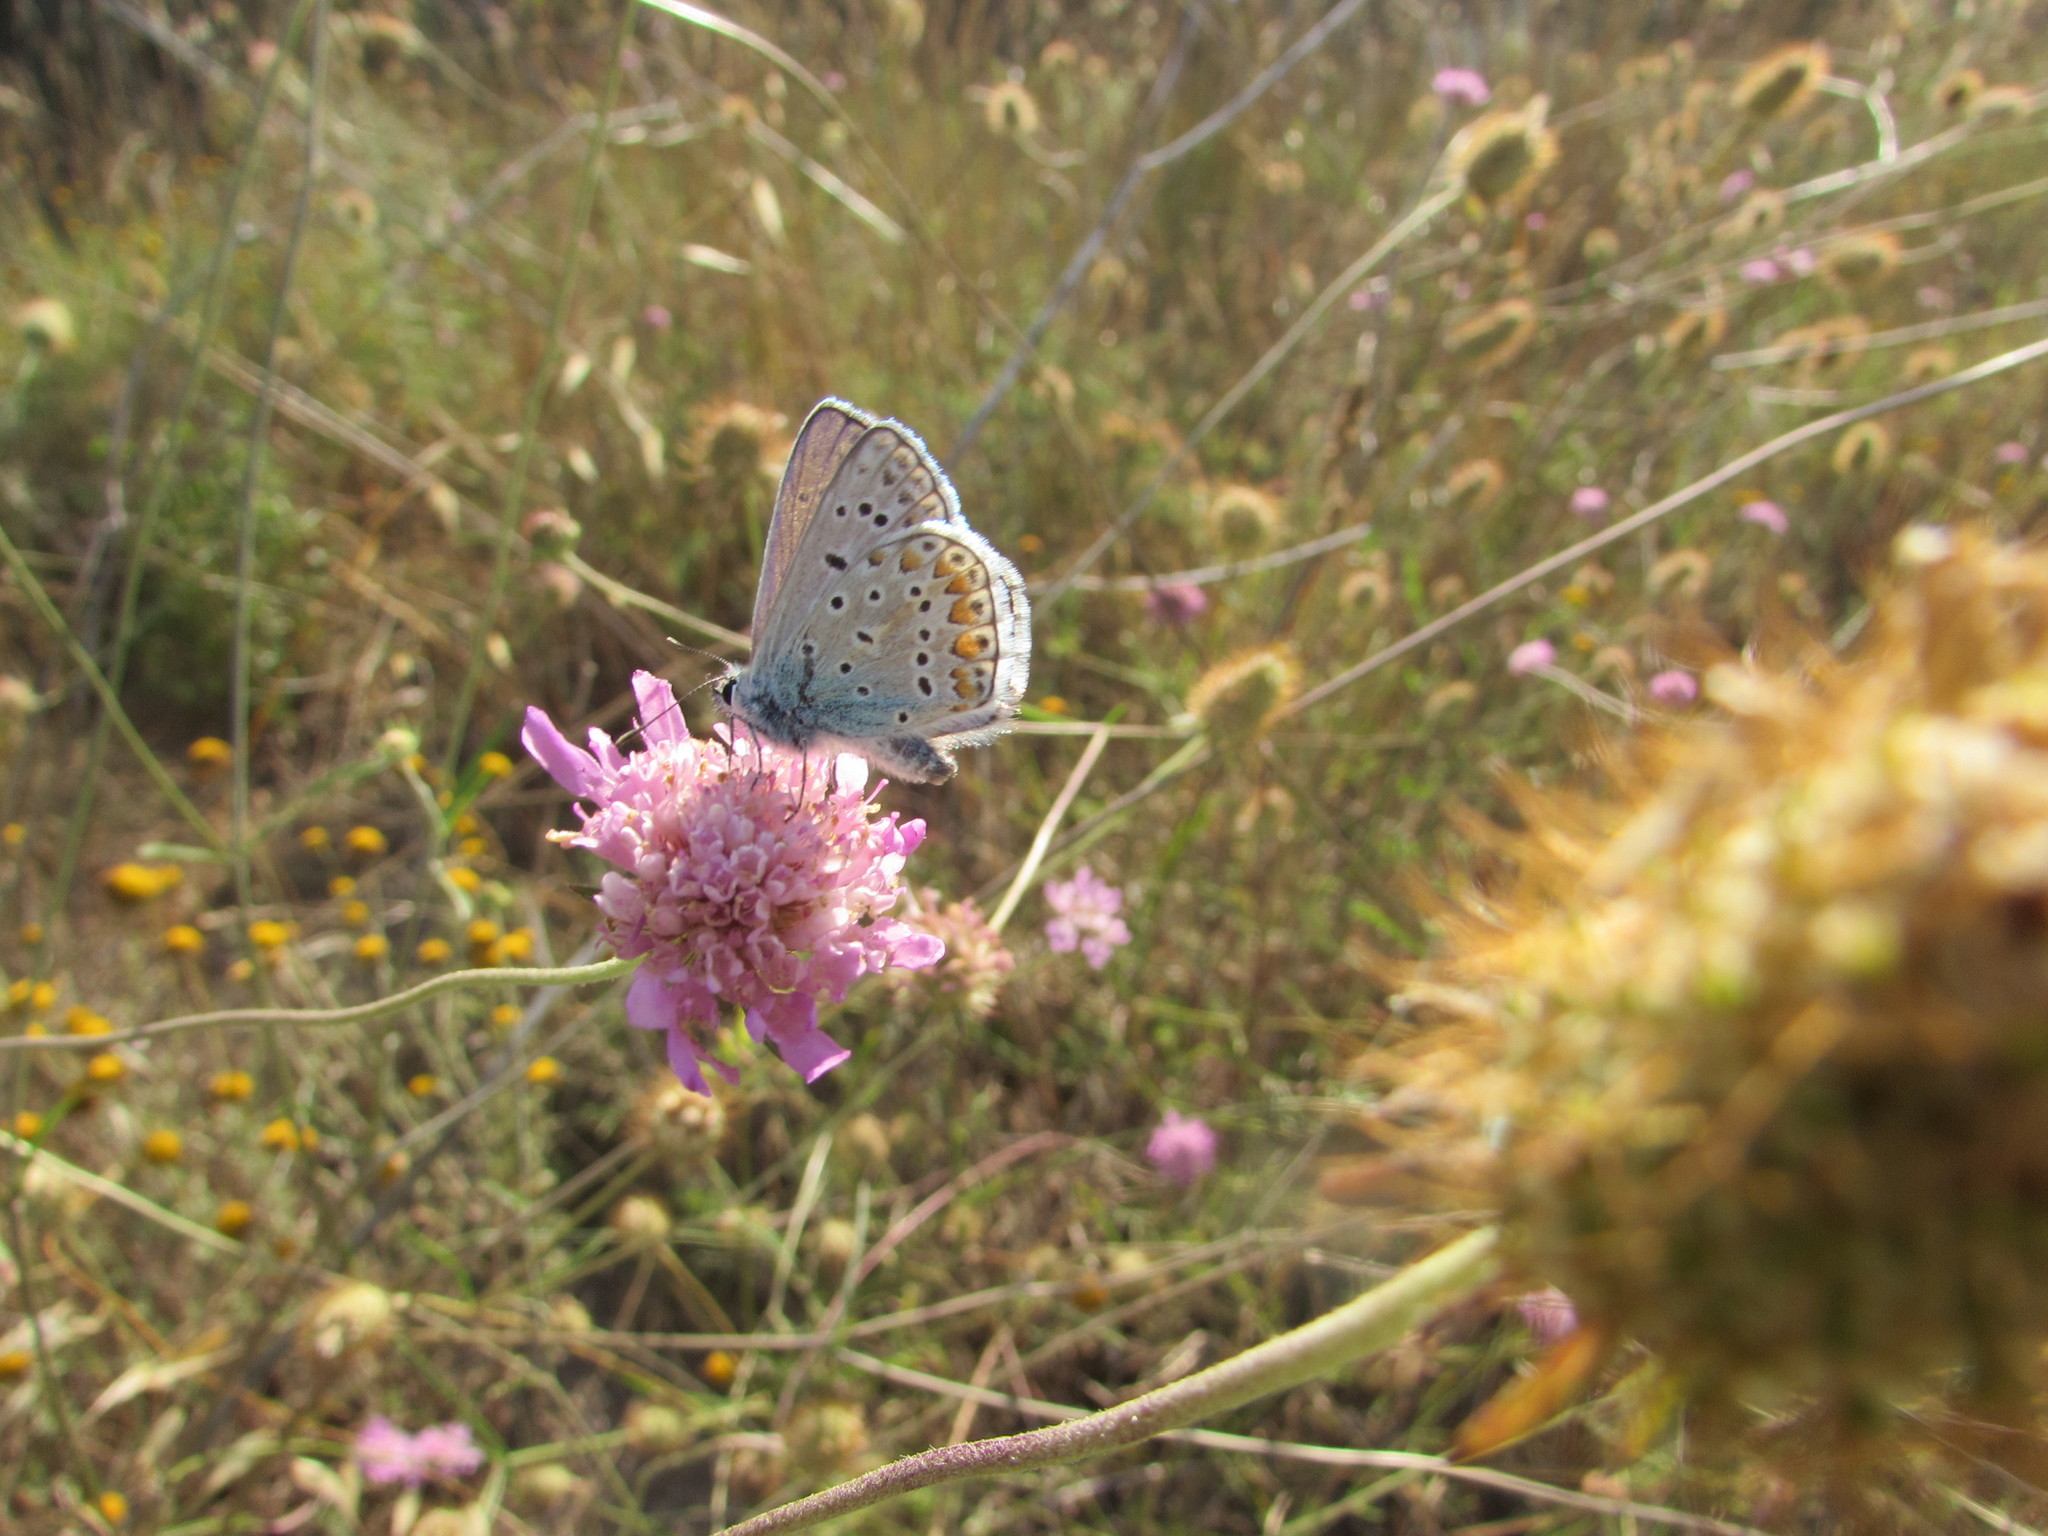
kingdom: Animalia
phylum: Arthropoda
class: Insecta
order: Lepidoptera
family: Lycaenidae
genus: Polyommatus
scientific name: Polyommatus icarus
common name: Common blue
